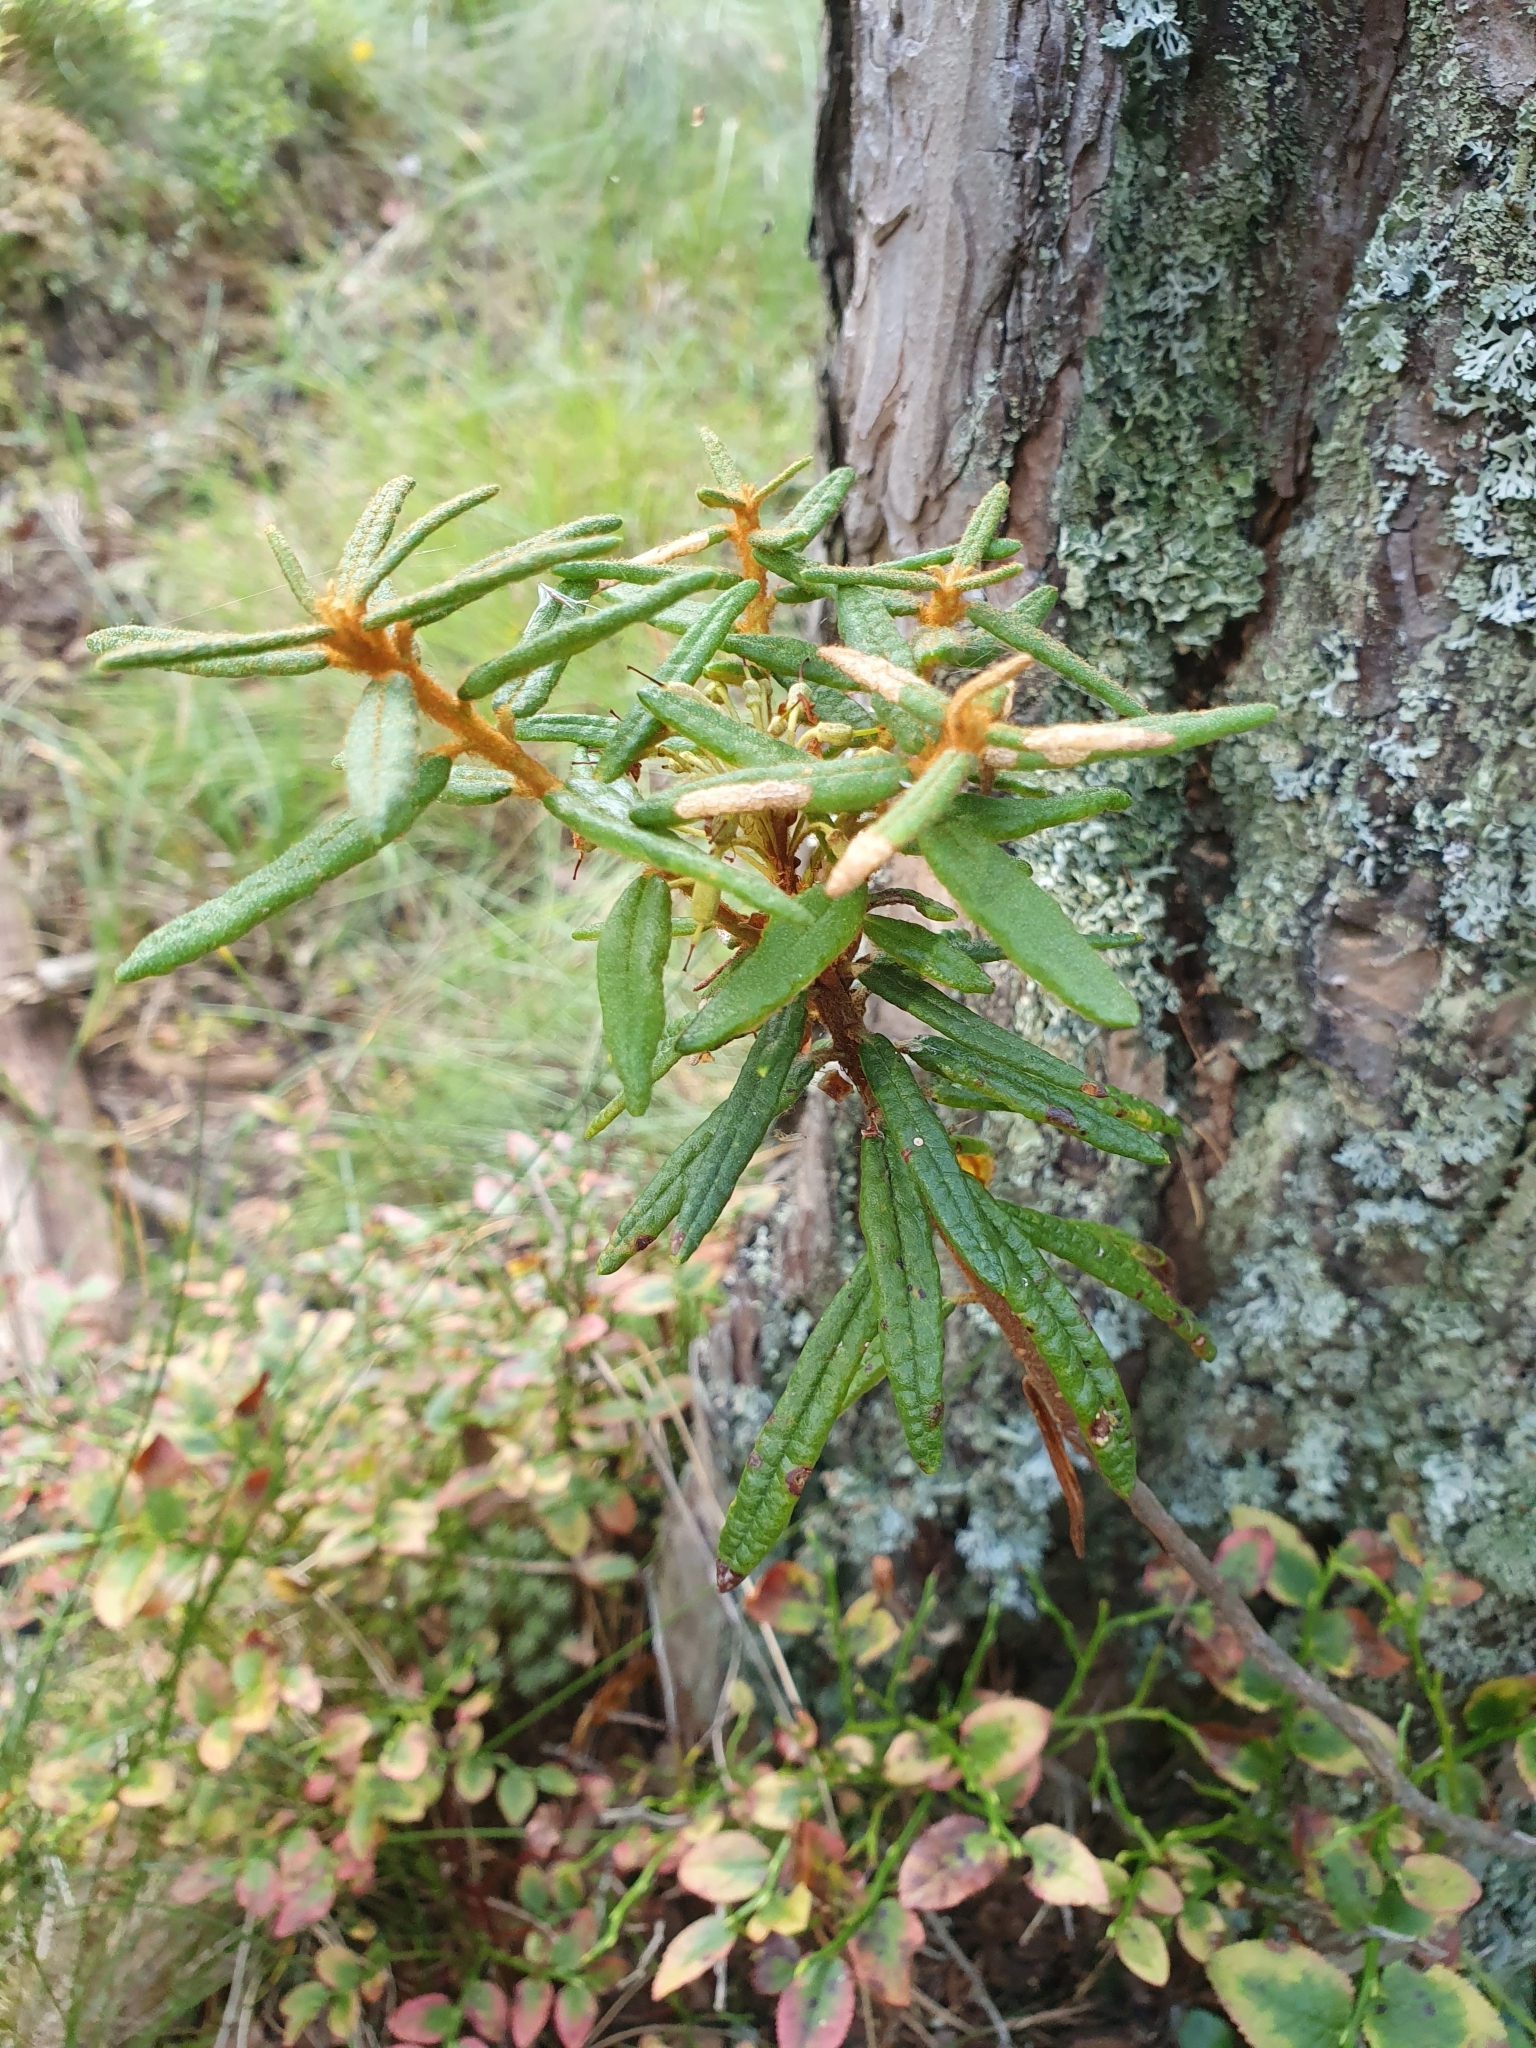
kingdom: Plantae
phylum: Tracheophyta
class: Magnoliopsida
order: Ericales
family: Ericaceae
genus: Rhododendron
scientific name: Rhododendron tomentosum
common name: Marsh labrador tea
